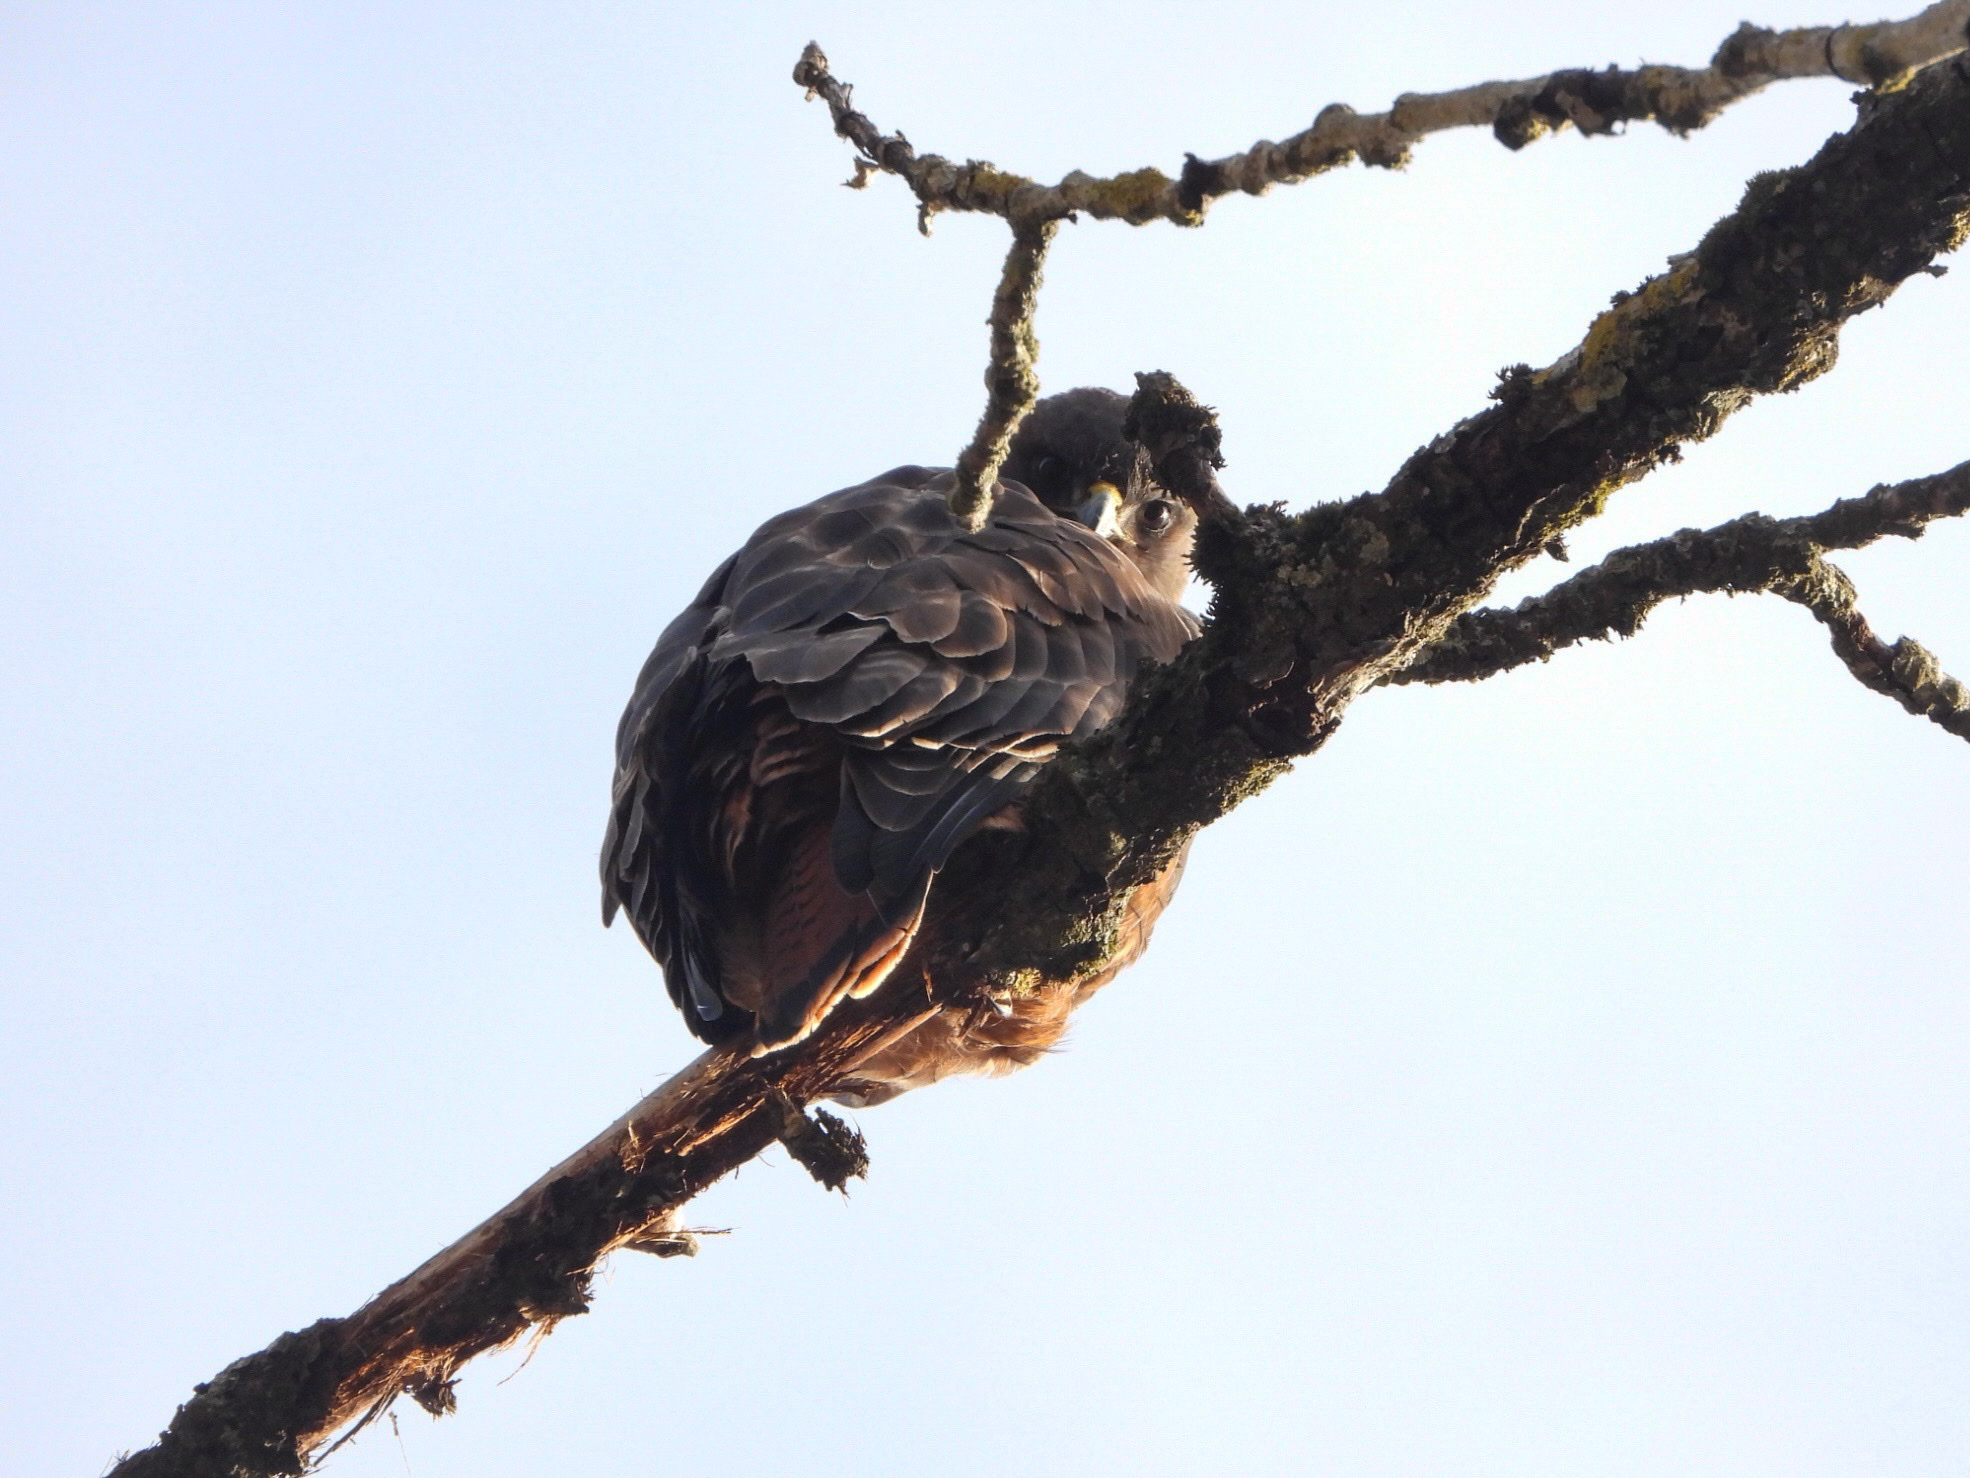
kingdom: Animalia
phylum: Chordata
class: Aves
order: Accipitriformes
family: Accipitridae
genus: Buteo
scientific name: Buteo jamaicensis
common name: Red-tailed hawk
